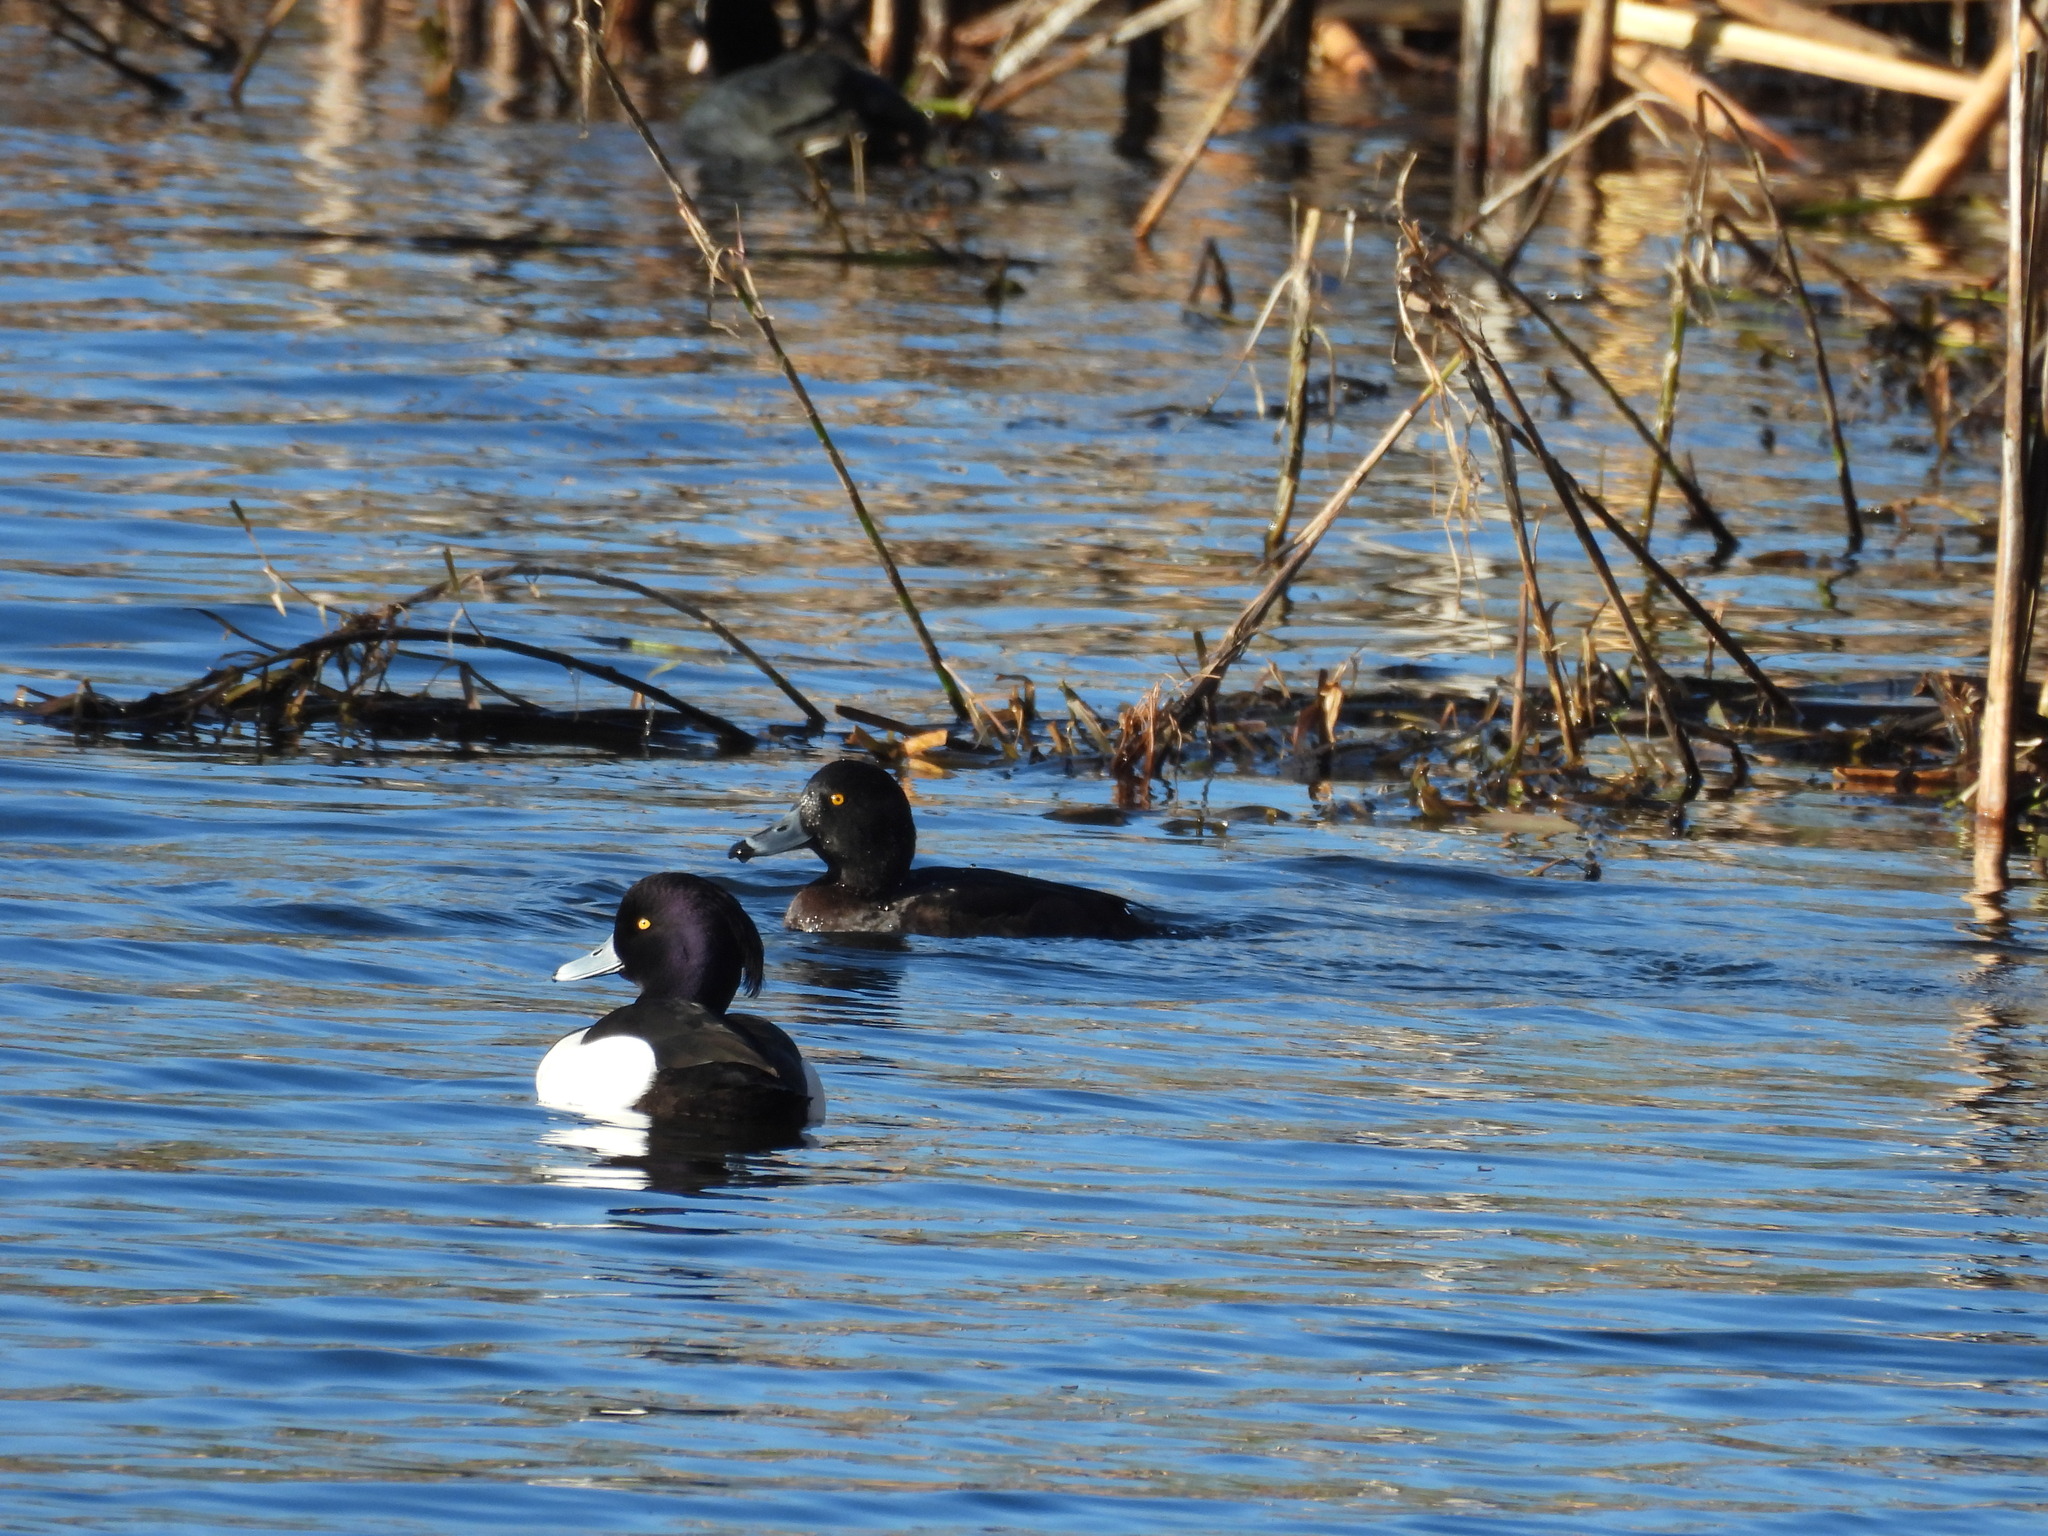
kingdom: Animalia
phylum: Chordata
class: Aves
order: Anseriformes
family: Anatidae
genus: Aythya
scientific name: Aythya fuligula
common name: Tufted duck
